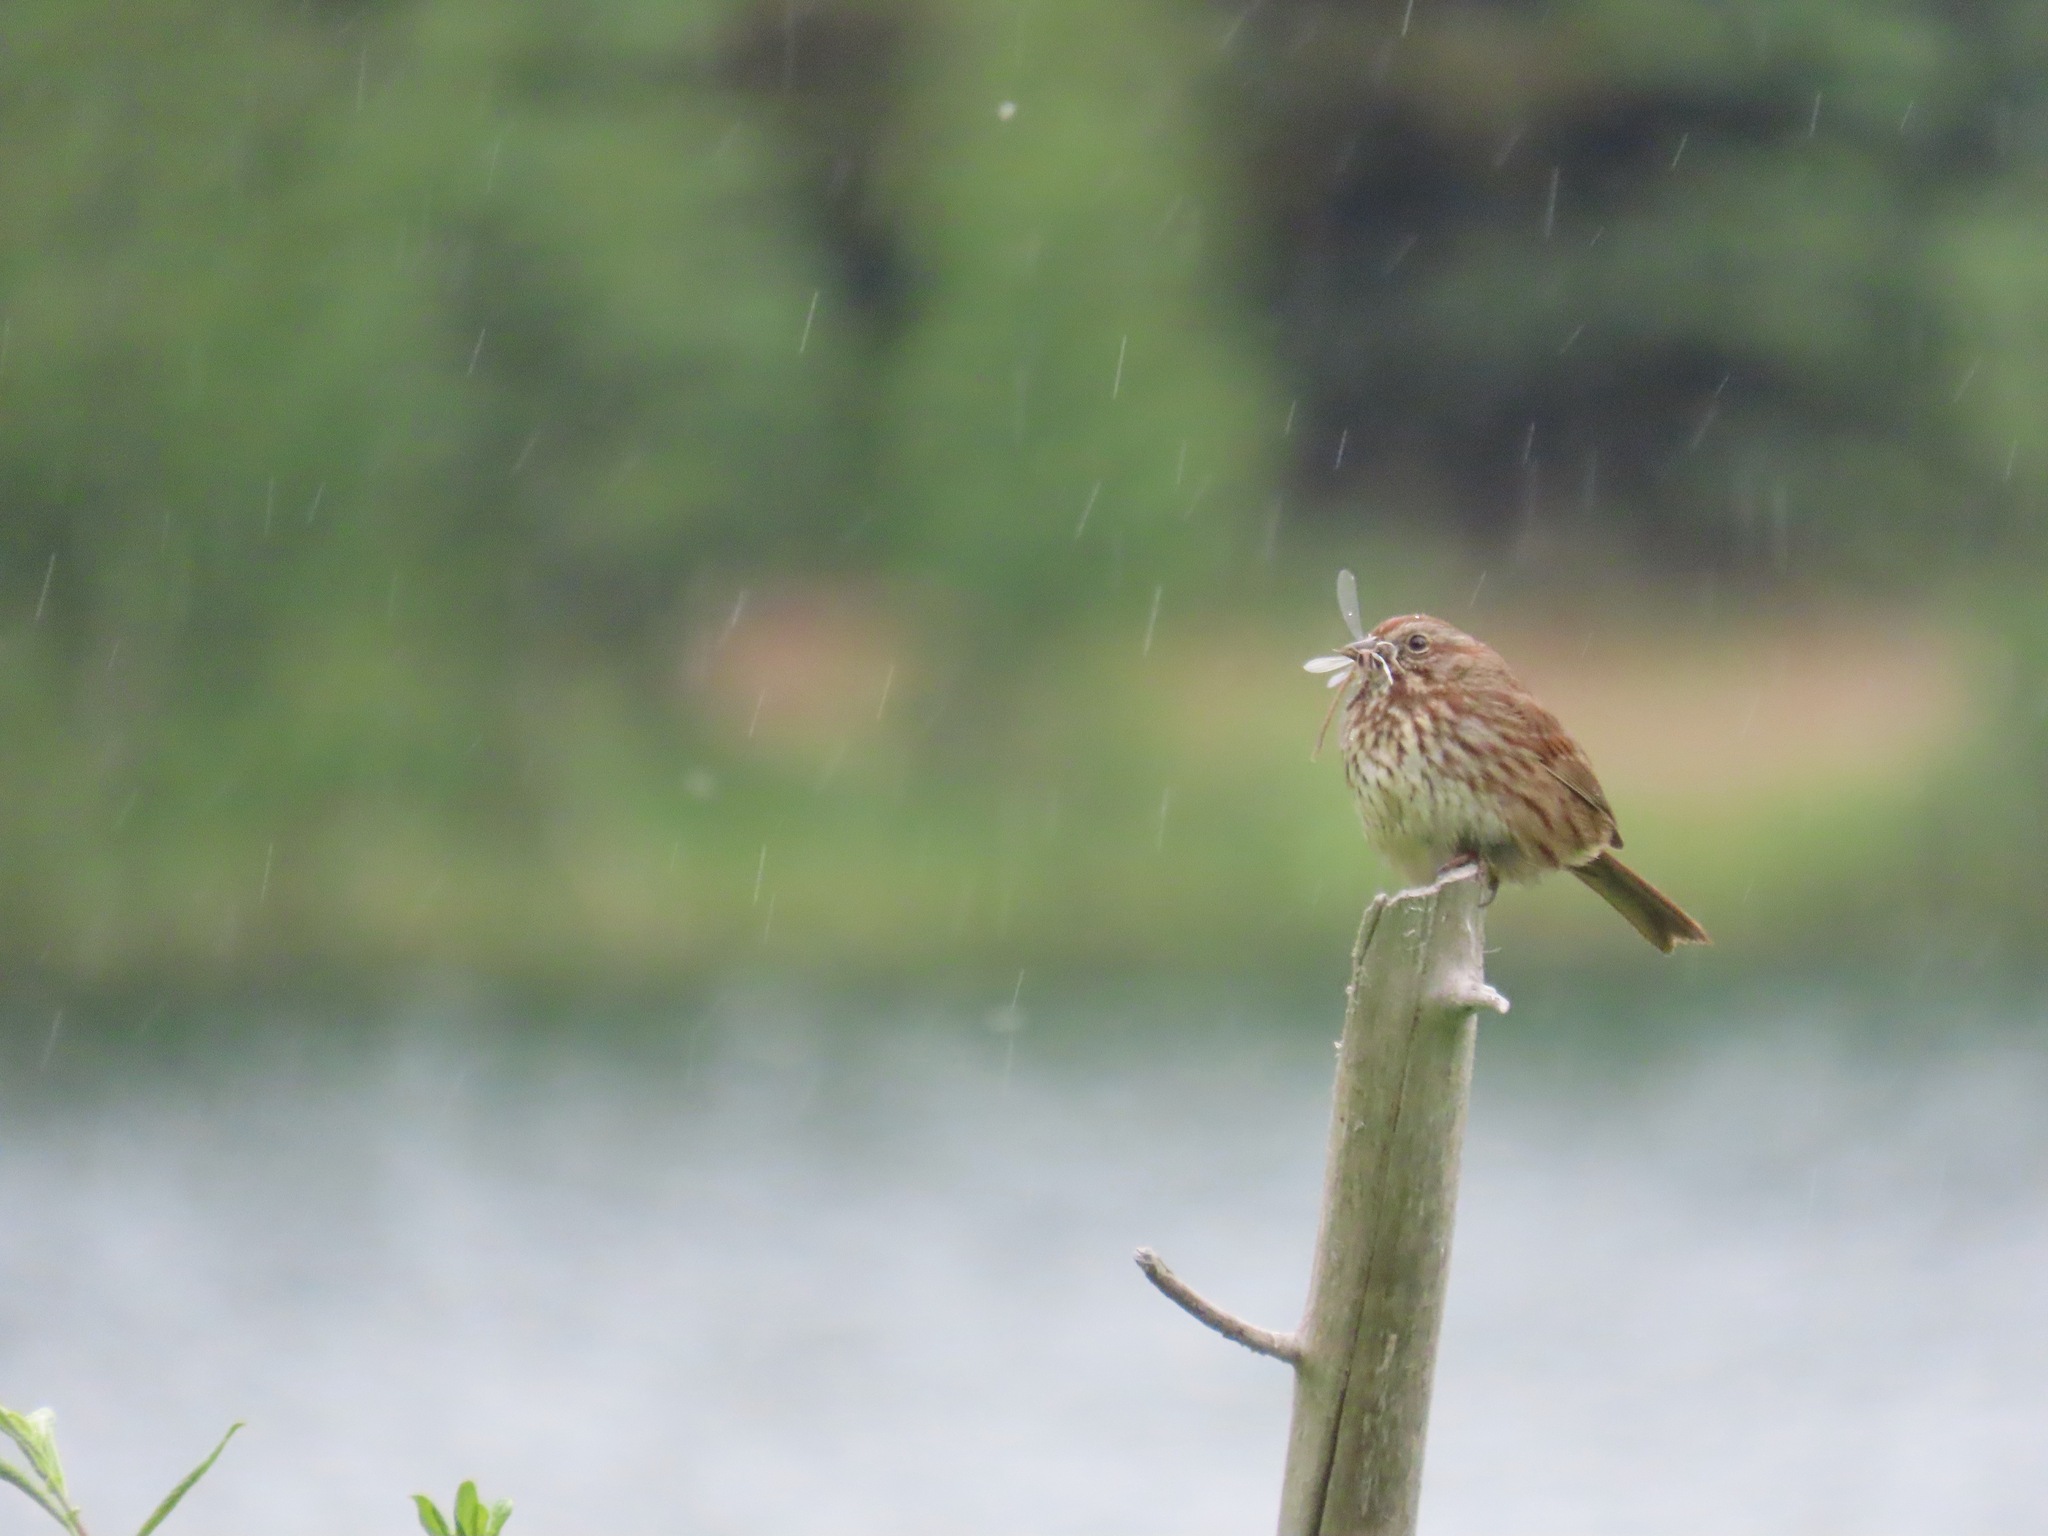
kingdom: Animalia
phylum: Chordata
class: Aves
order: Passeriformes
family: Passerellidae
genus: Melospiza
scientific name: Melospiza melodia
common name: Song sparrow
